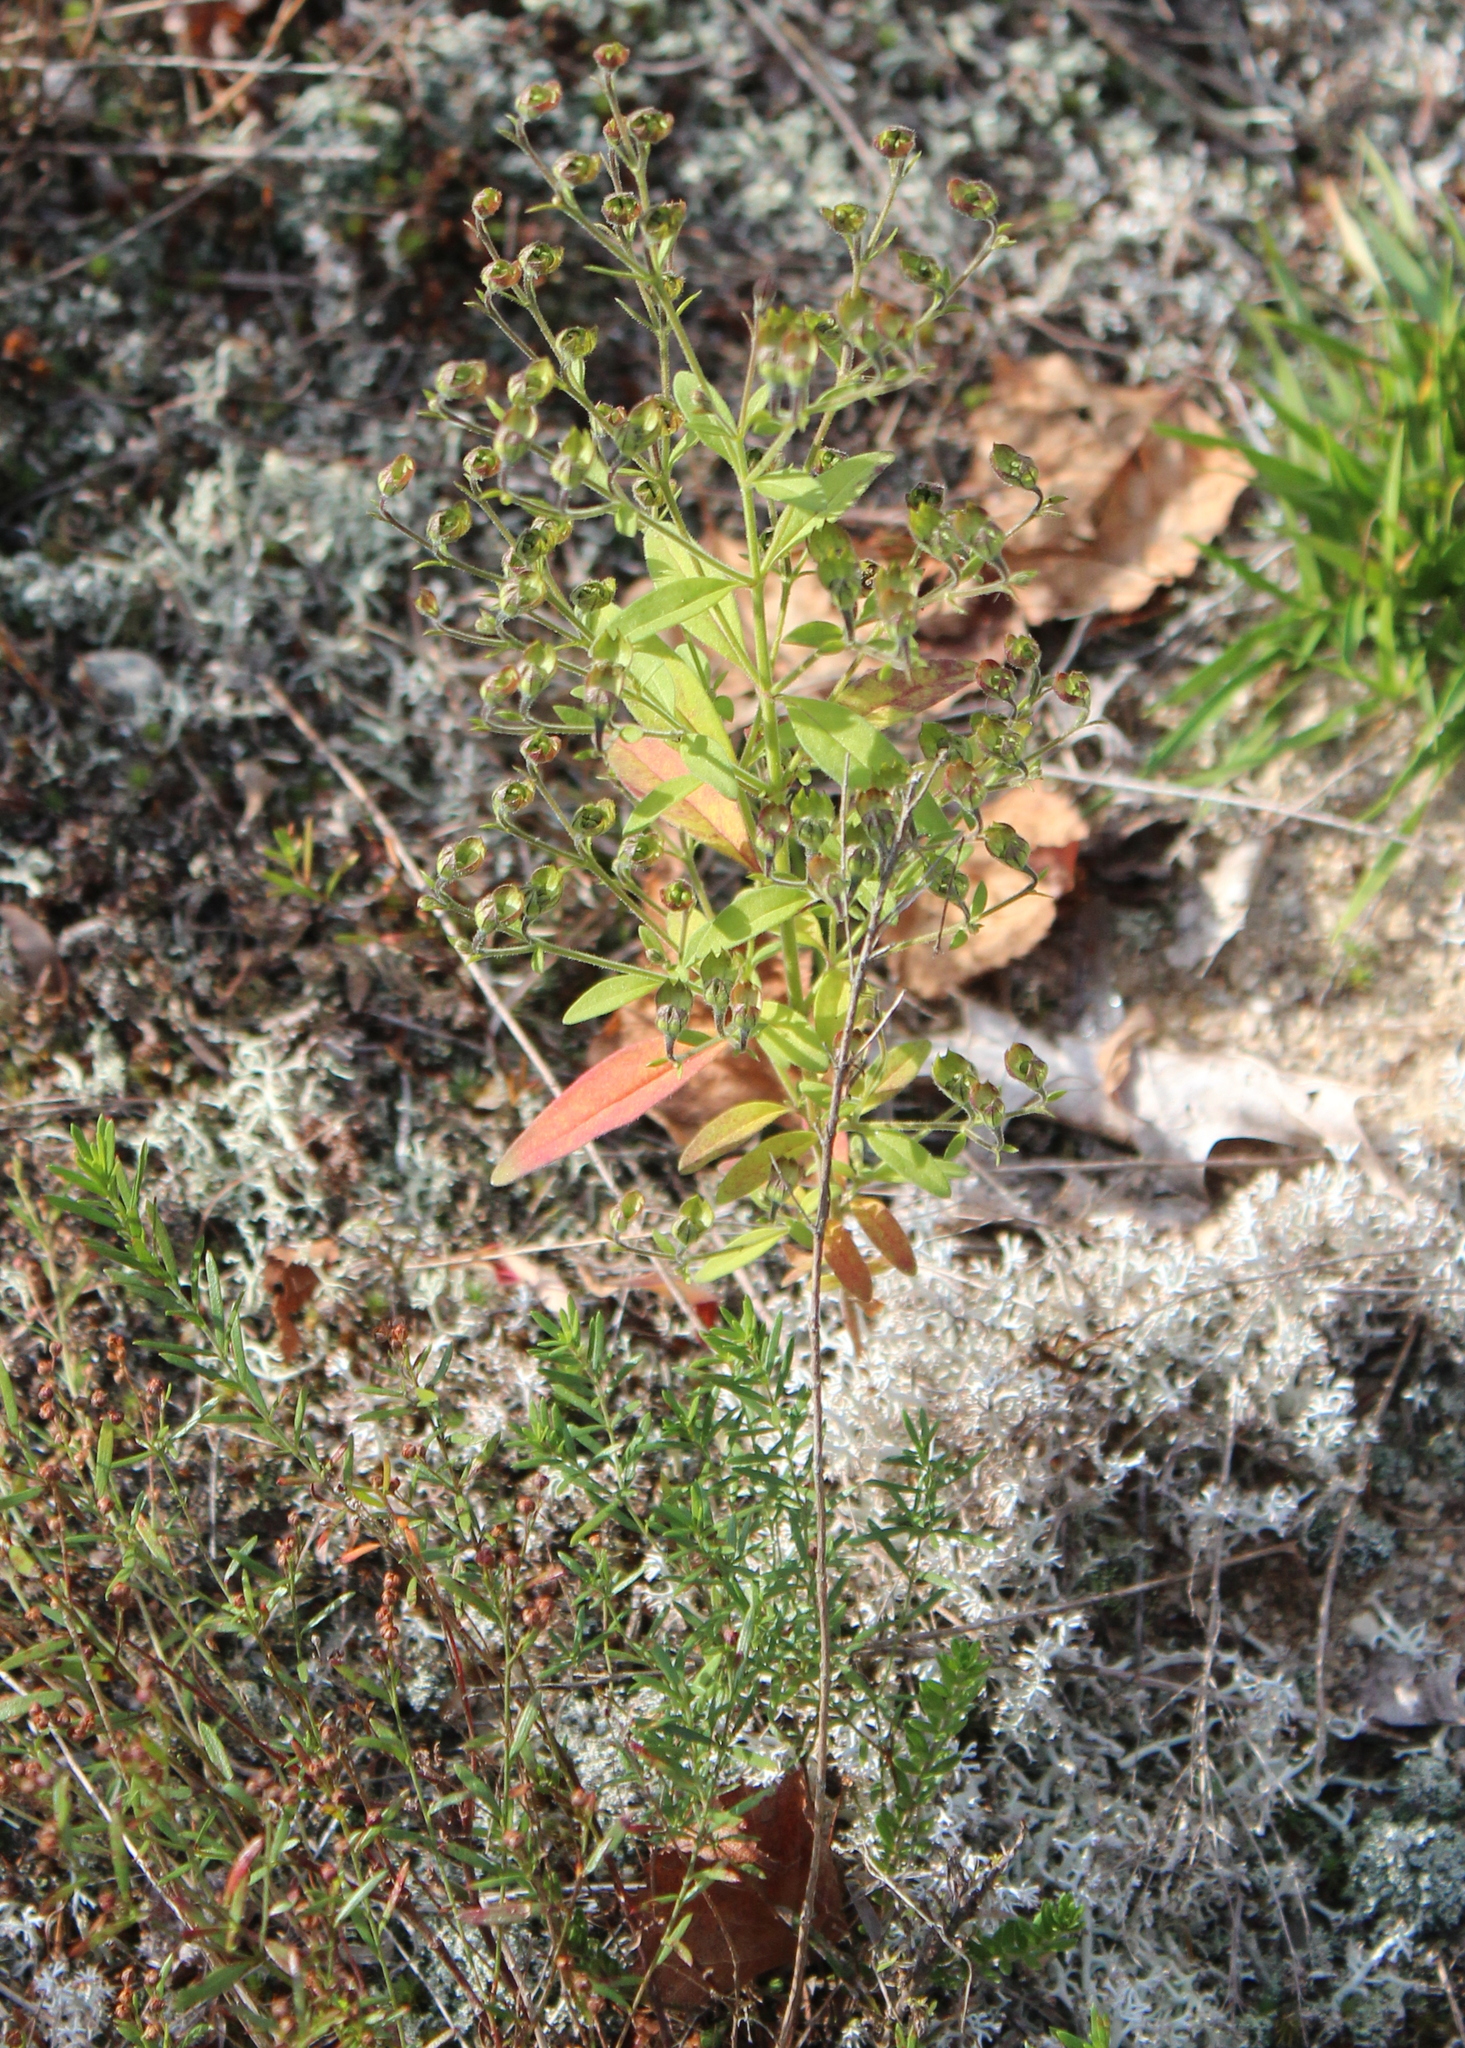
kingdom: Plantae
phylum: Tracheophyta
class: Magnoliopsida
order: Lamiales
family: Lamiaceae
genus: Trichostema
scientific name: Trichostema dichotomum
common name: Bastard pennyroyal
